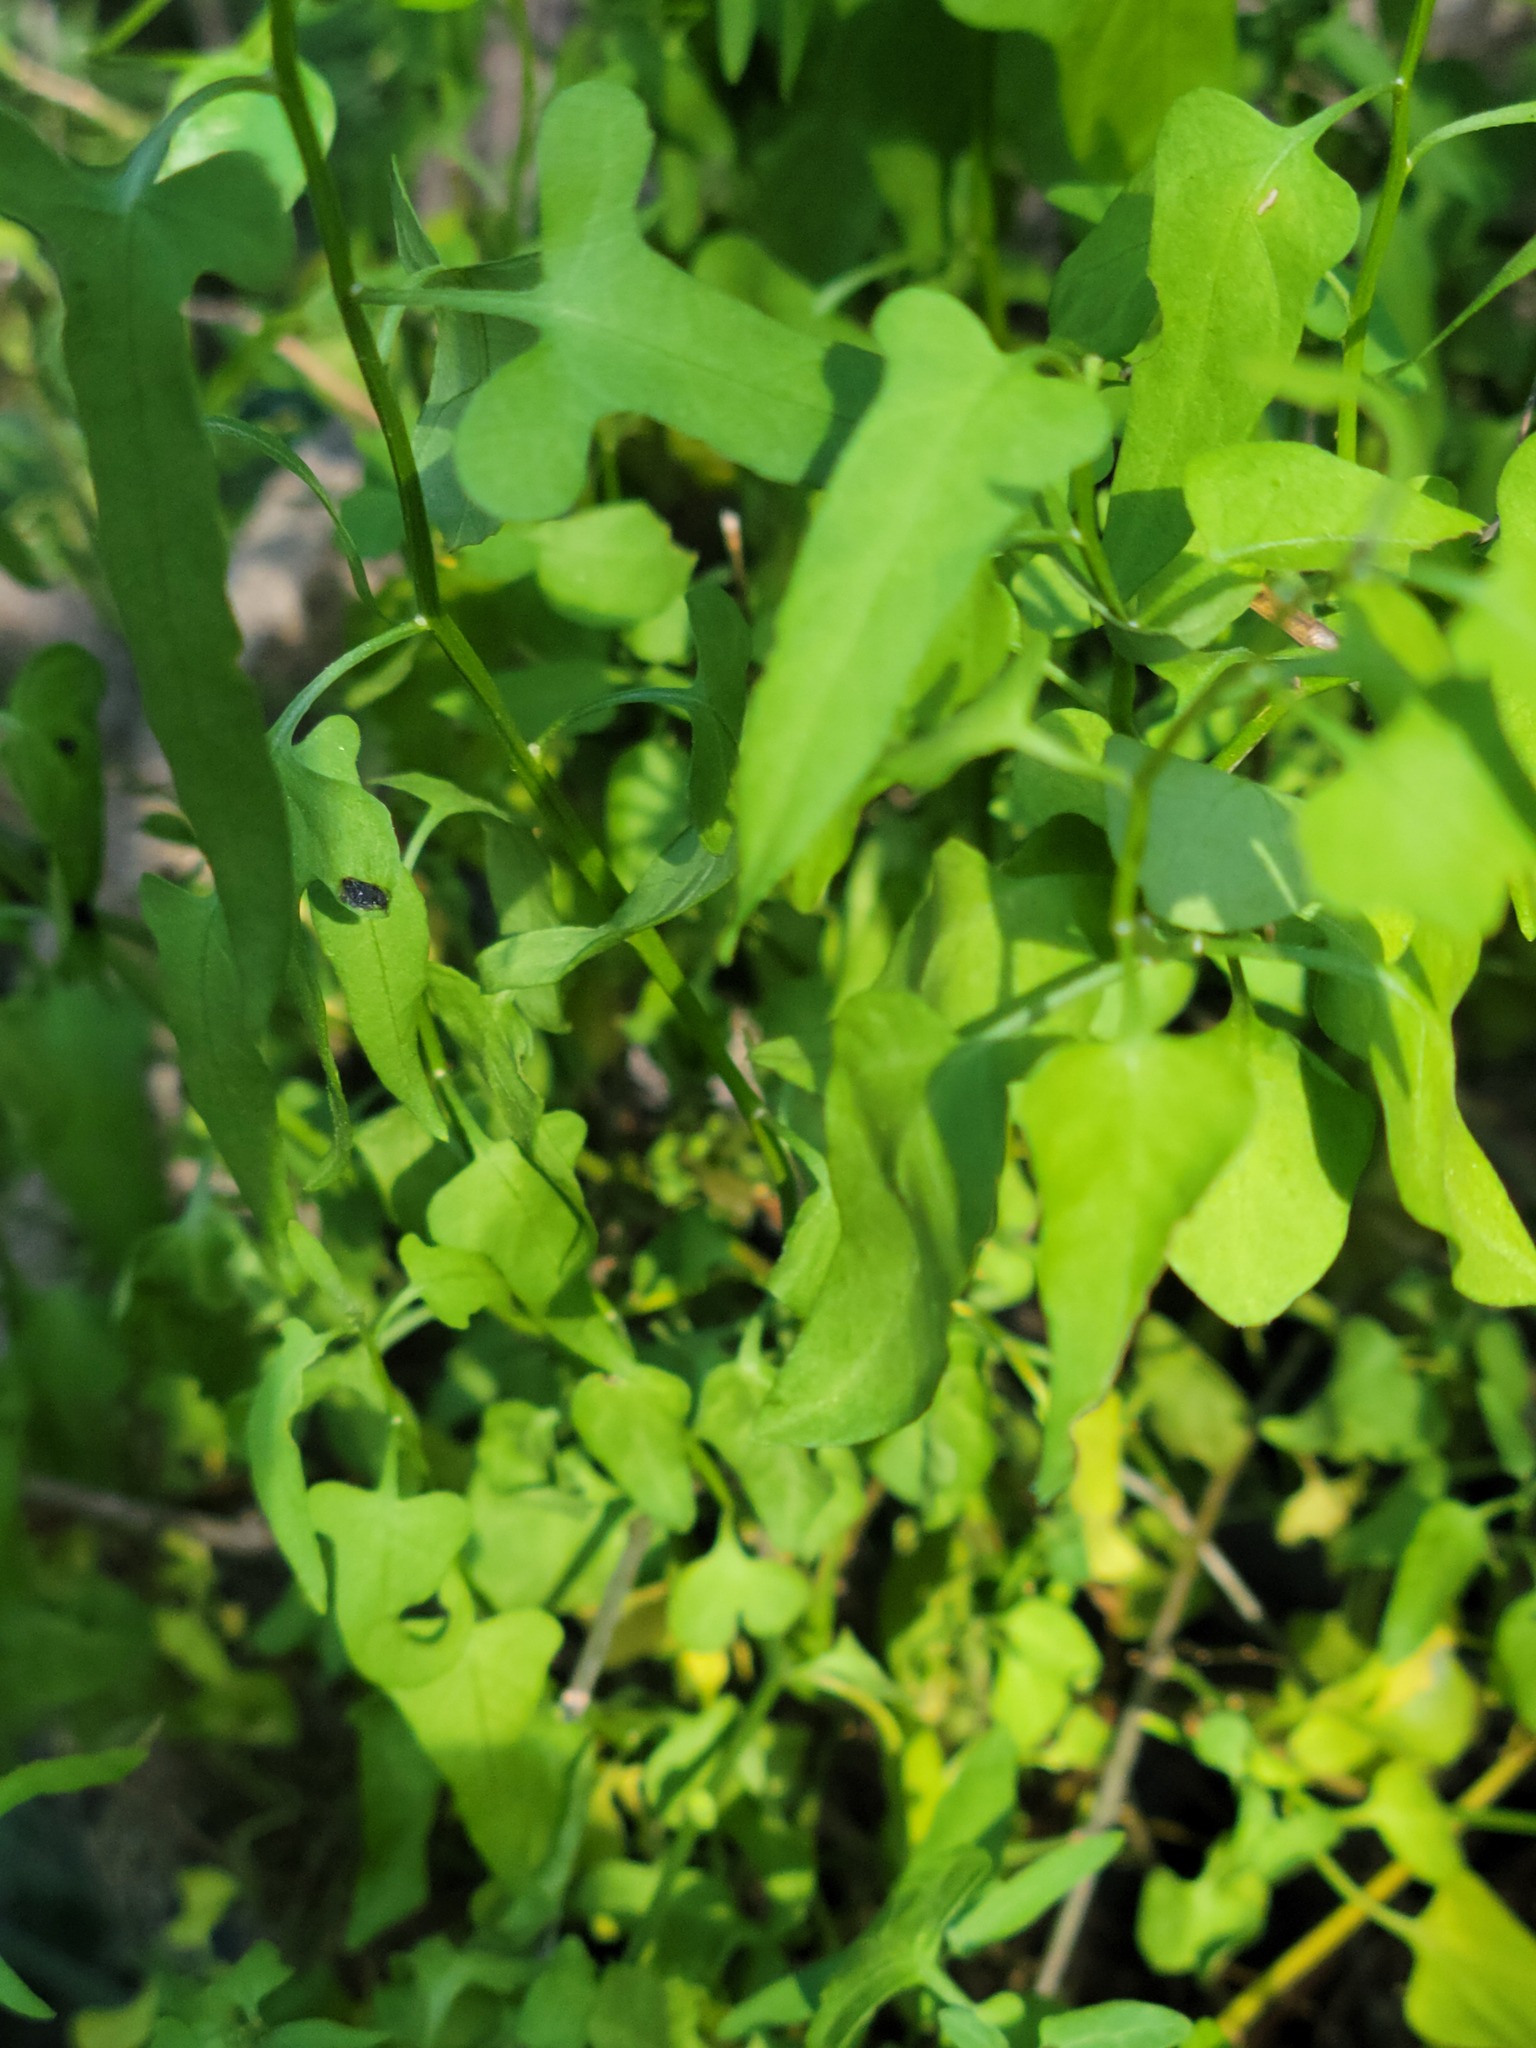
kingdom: Plantae
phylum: Tracheophyta
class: Magnoliopsida
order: Solanales
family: Solanaceae
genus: Solanum
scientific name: Solanum triquetrum
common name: Texas nightshade
